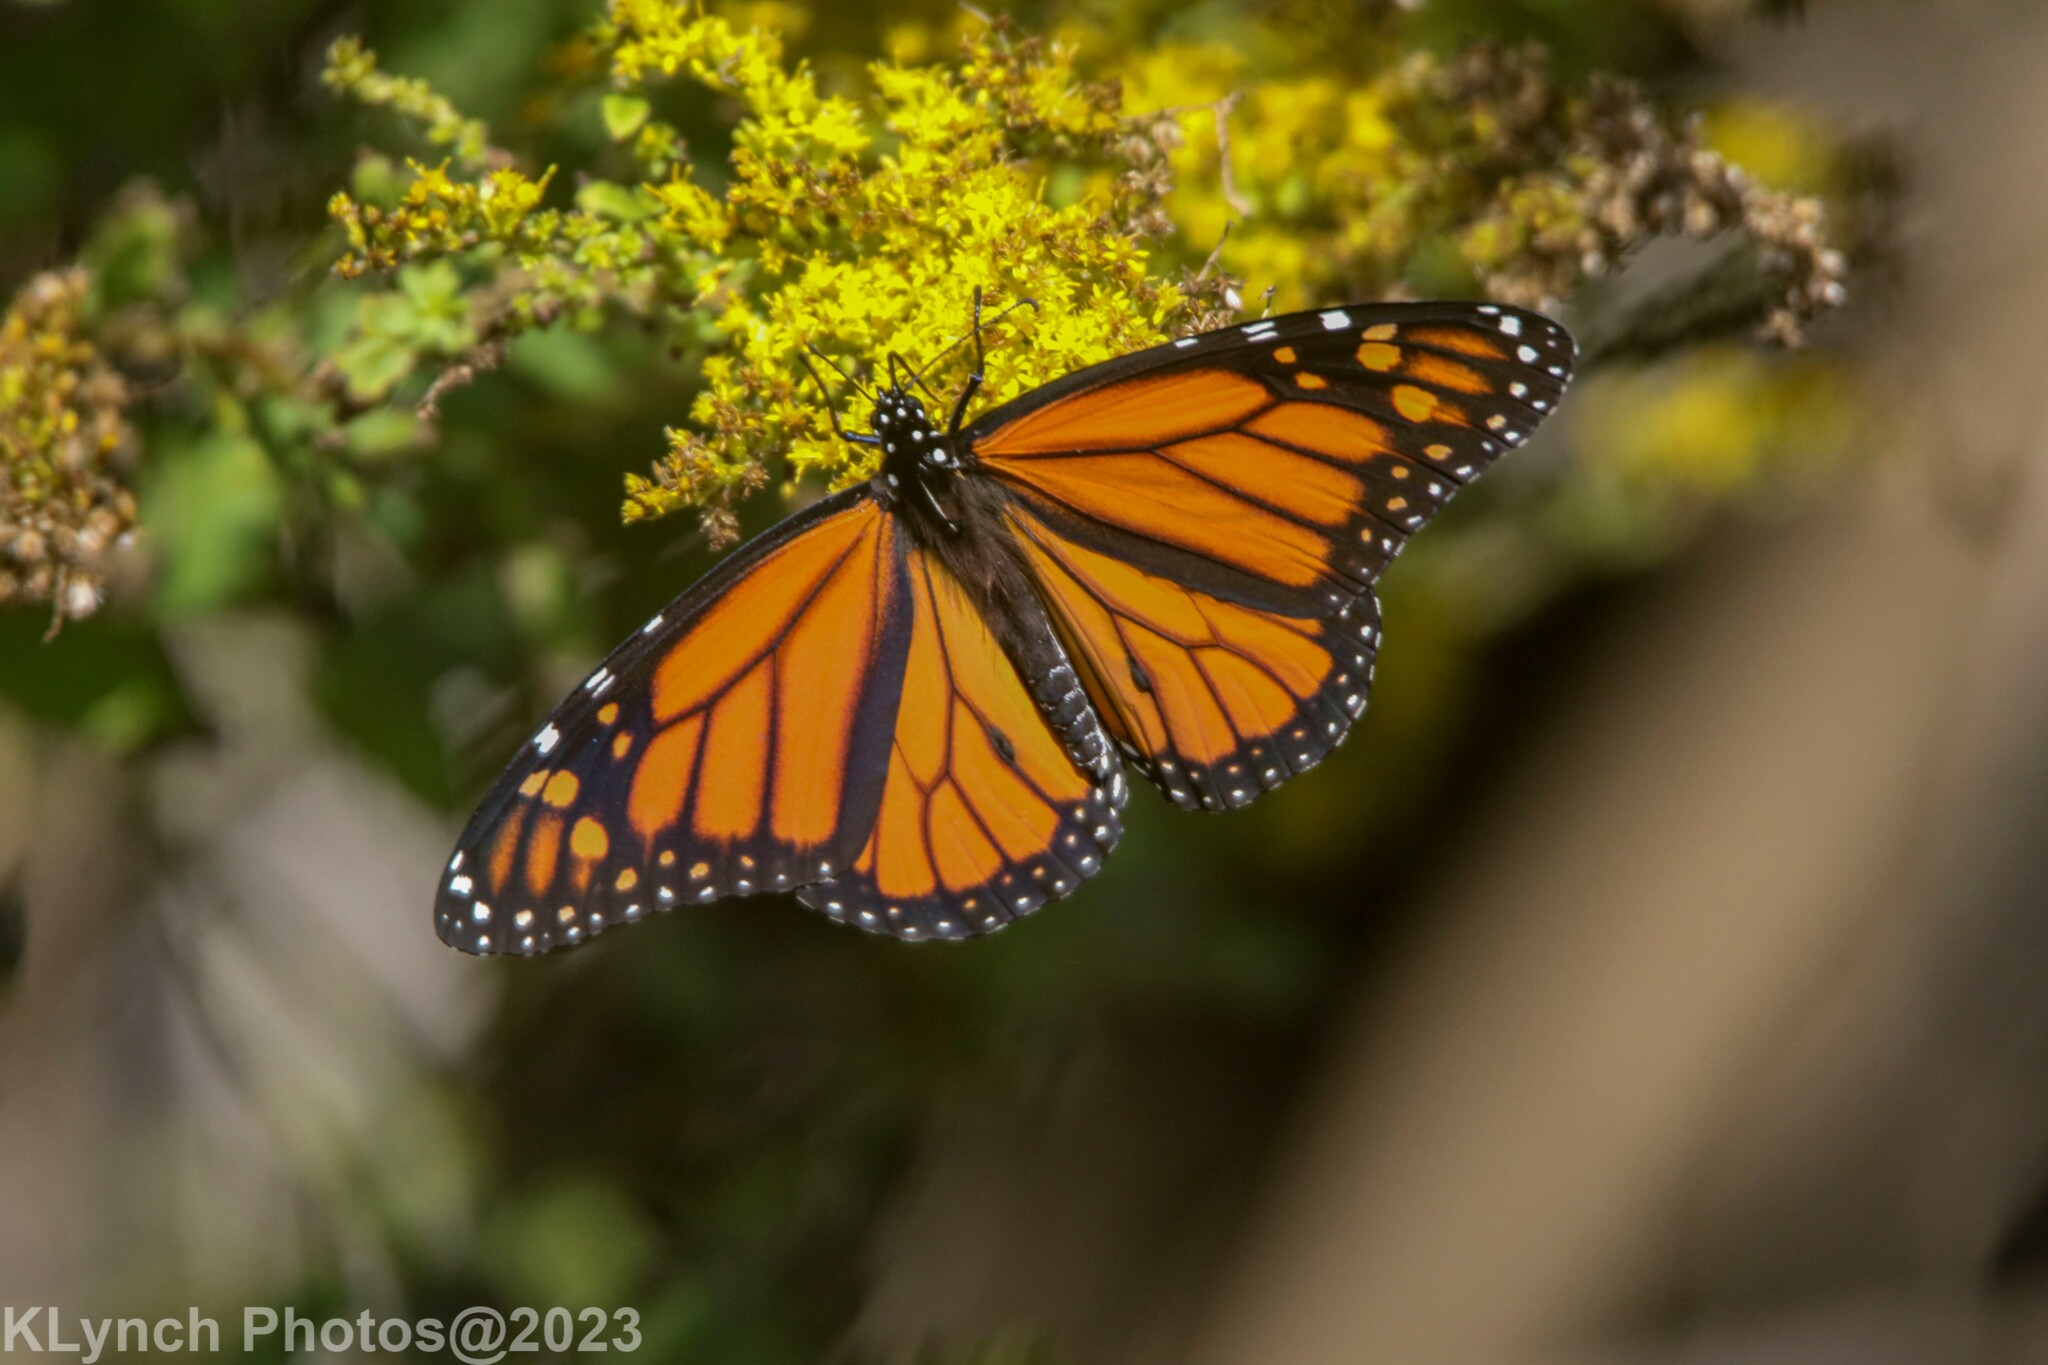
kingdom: Animalia
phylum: Arthropoda
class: Insecta
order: Lepidoptera
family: Nymphalidae
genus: Danaus
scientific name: Danaus plexippus
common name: Monarch
